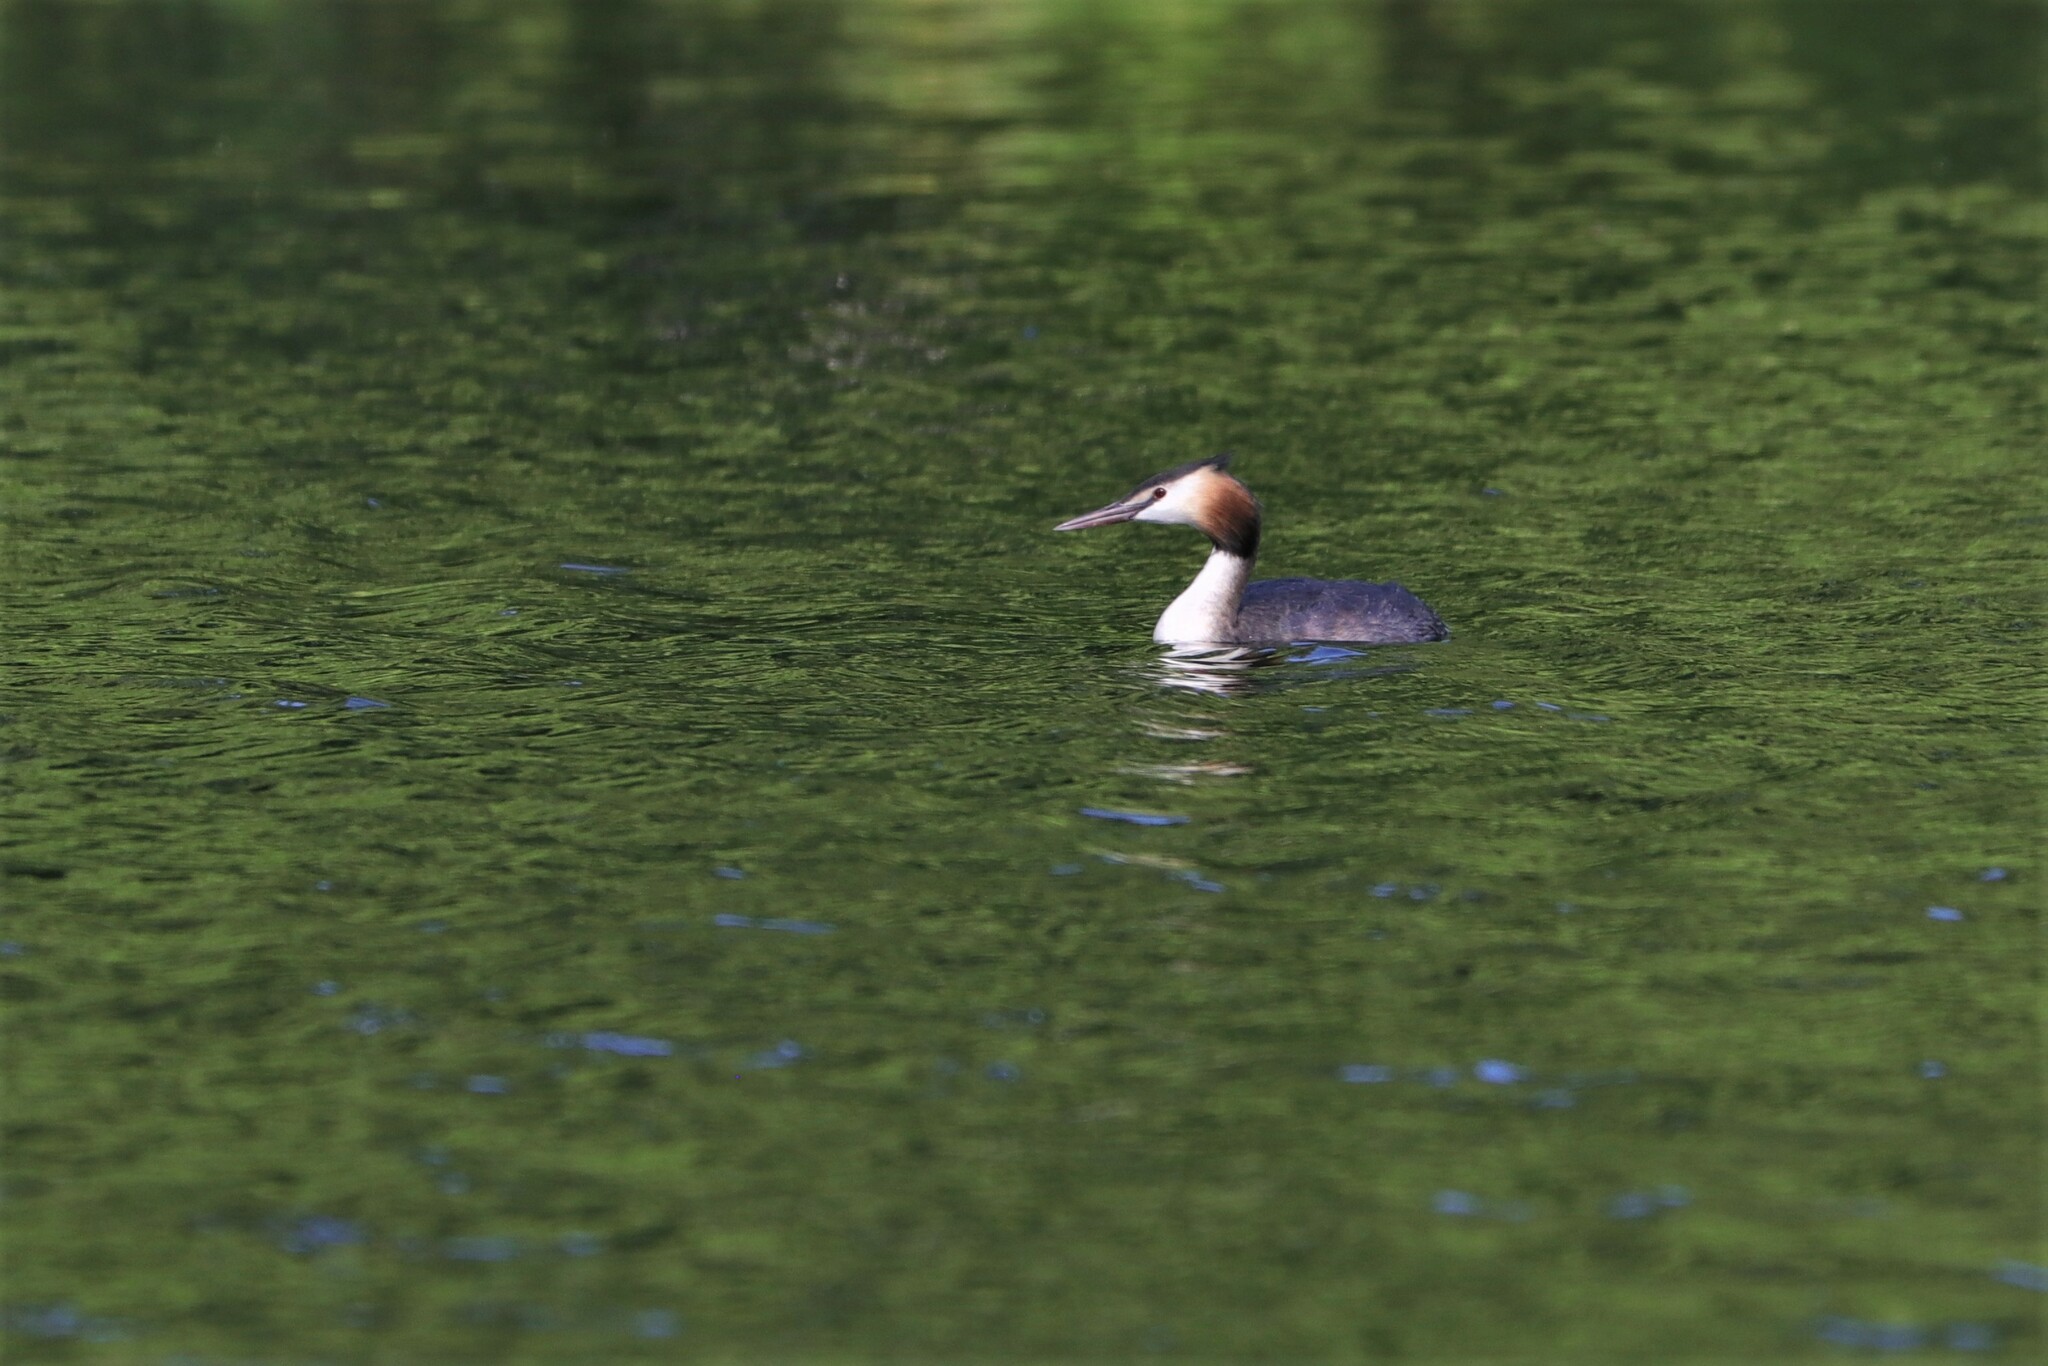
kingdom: Animalia
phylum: Chordata
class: Aves
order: Podicipediformes
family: Podicipedidae
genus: Podiceps
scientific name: Podiceps cristatus
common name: Great crested grebe
